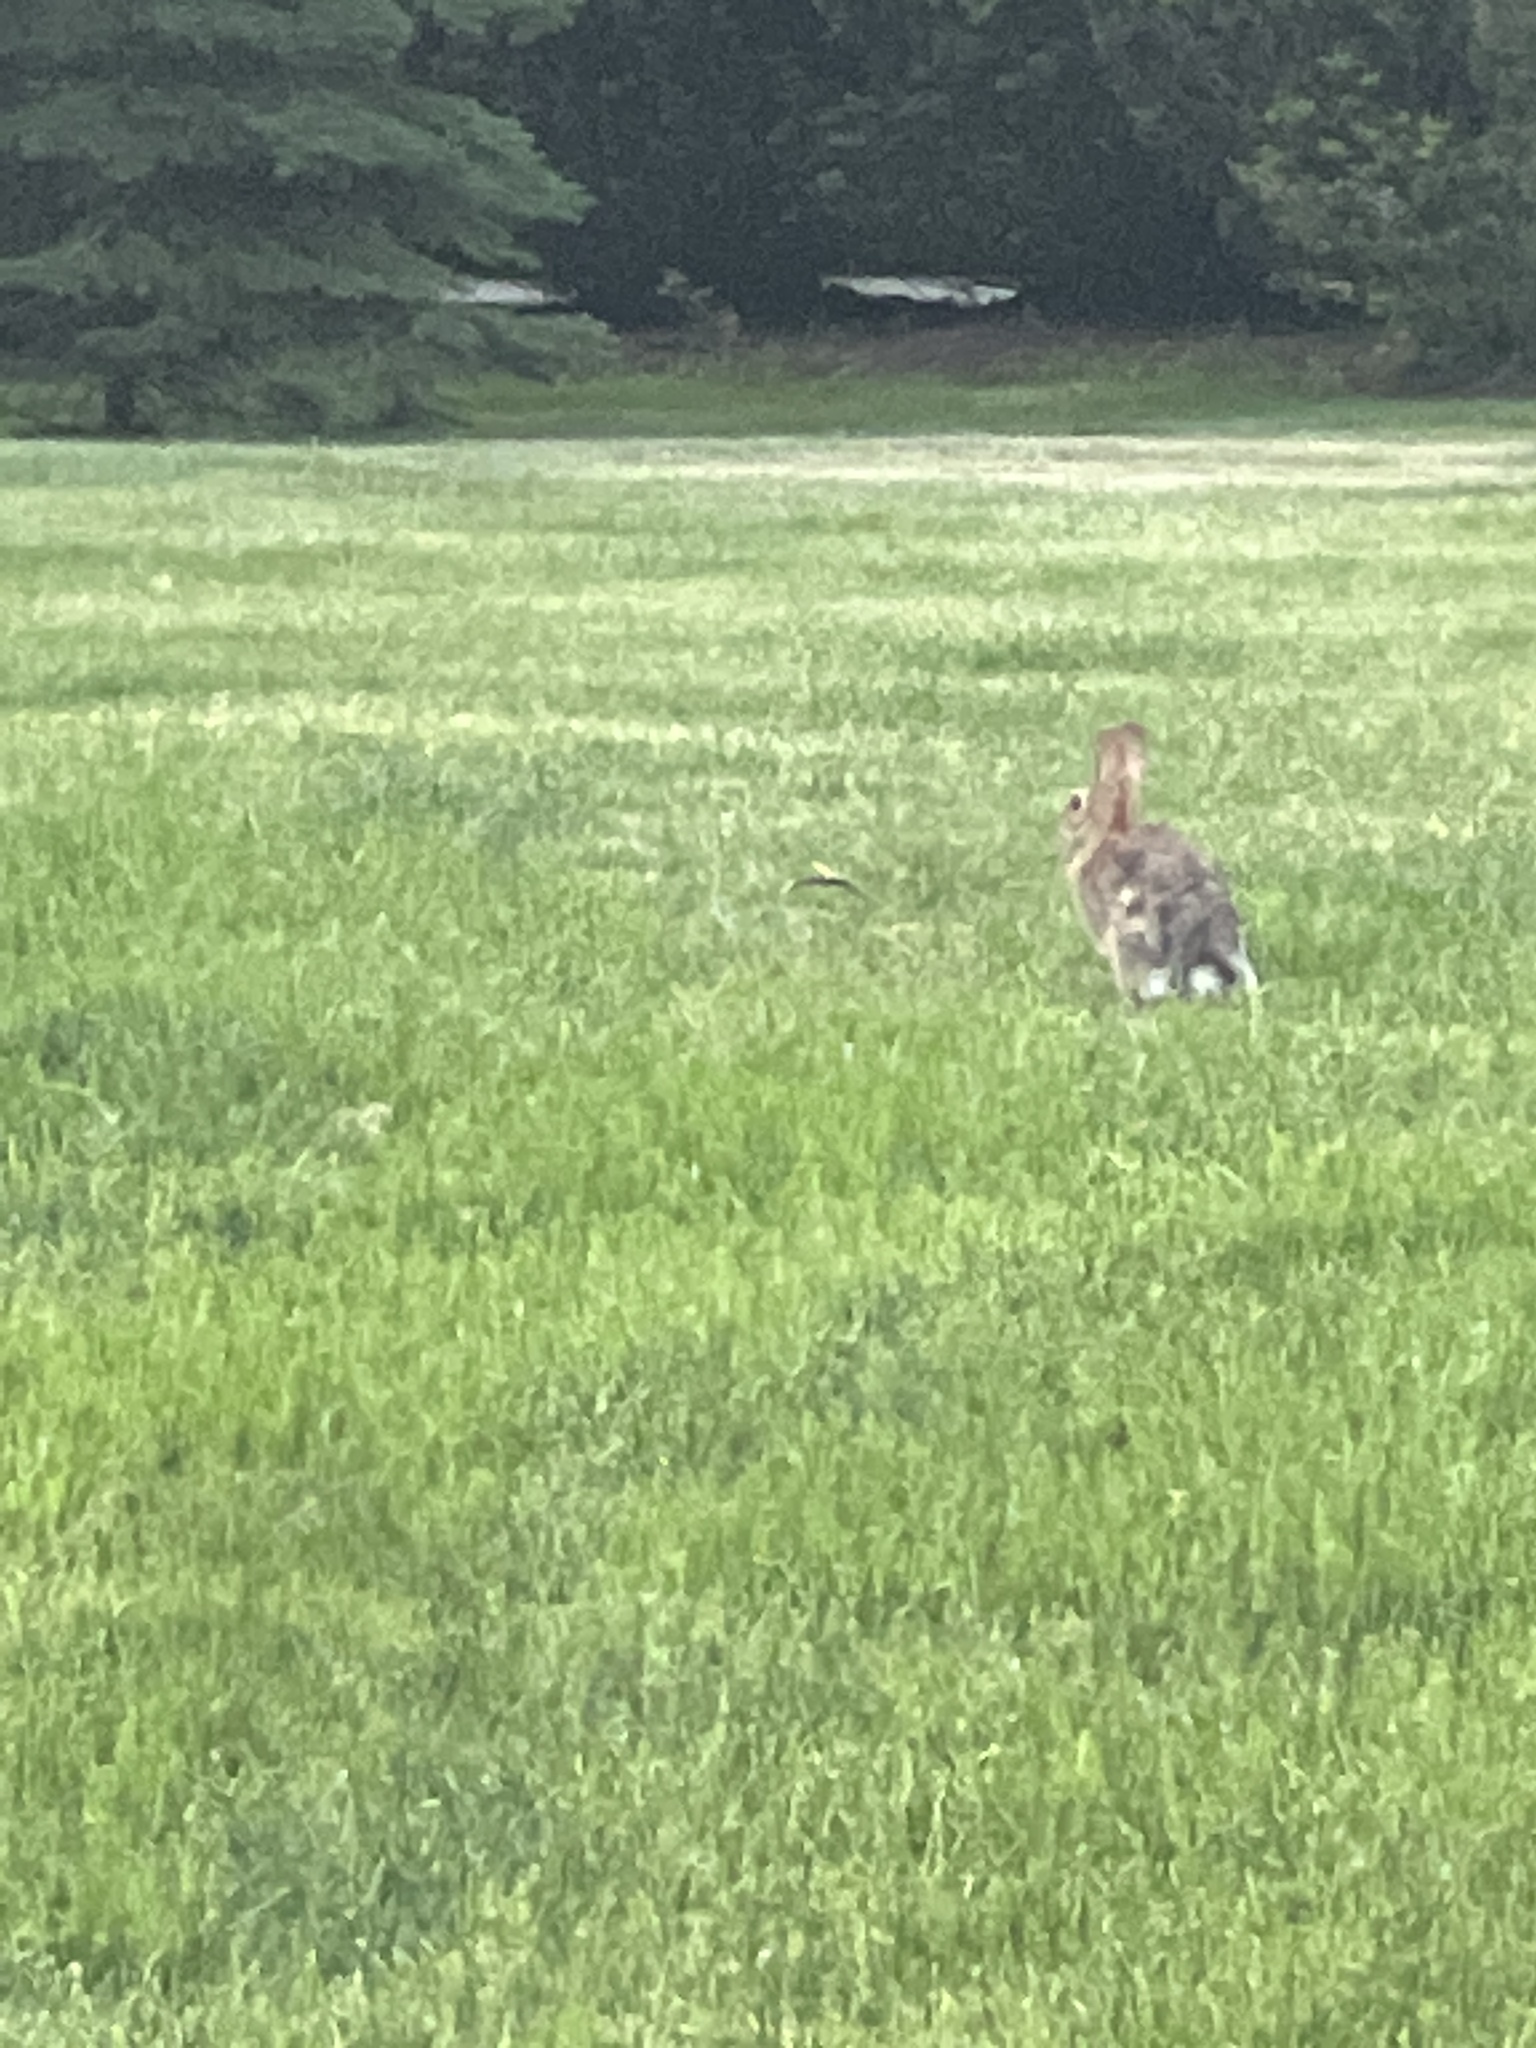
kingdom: Animalia
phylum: Chordata
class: Mammalia
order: Lagomorpha
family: Leporidae
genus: Sylvilagus
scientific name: Sylvilagus floridanus
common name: Eastern cottontail
